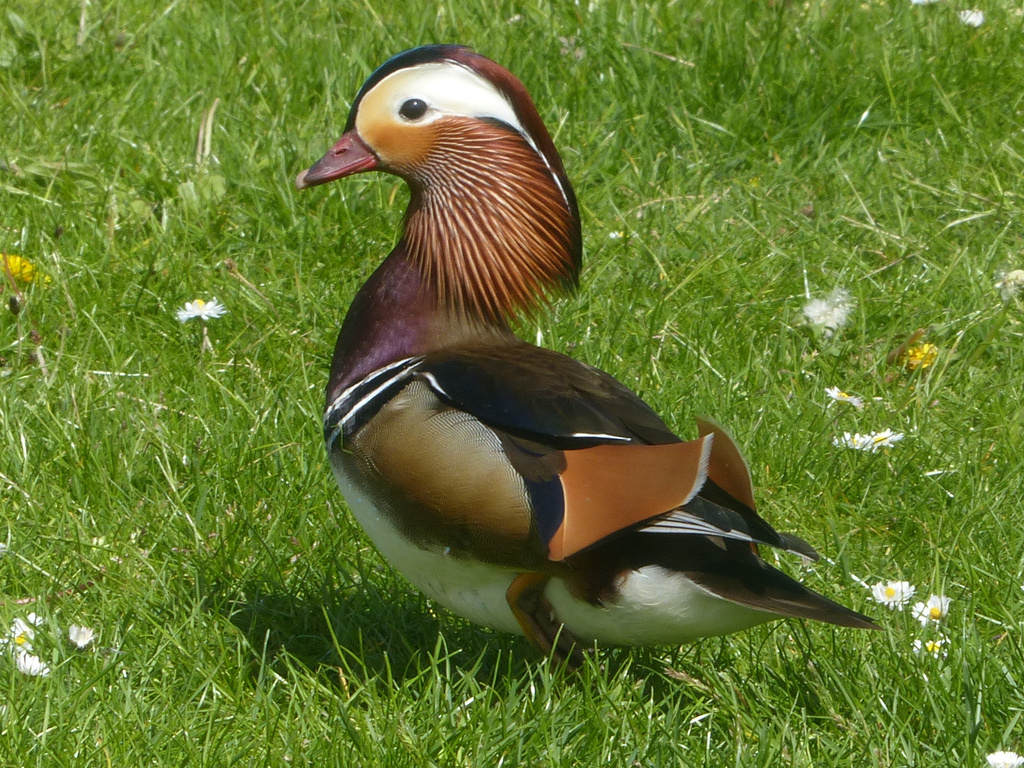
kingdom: Animalia
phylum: Chordata
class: Aves
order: Anseriformes
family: Anatidae
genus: Aix
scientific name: Aix galericulata
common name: Mandarin duck
